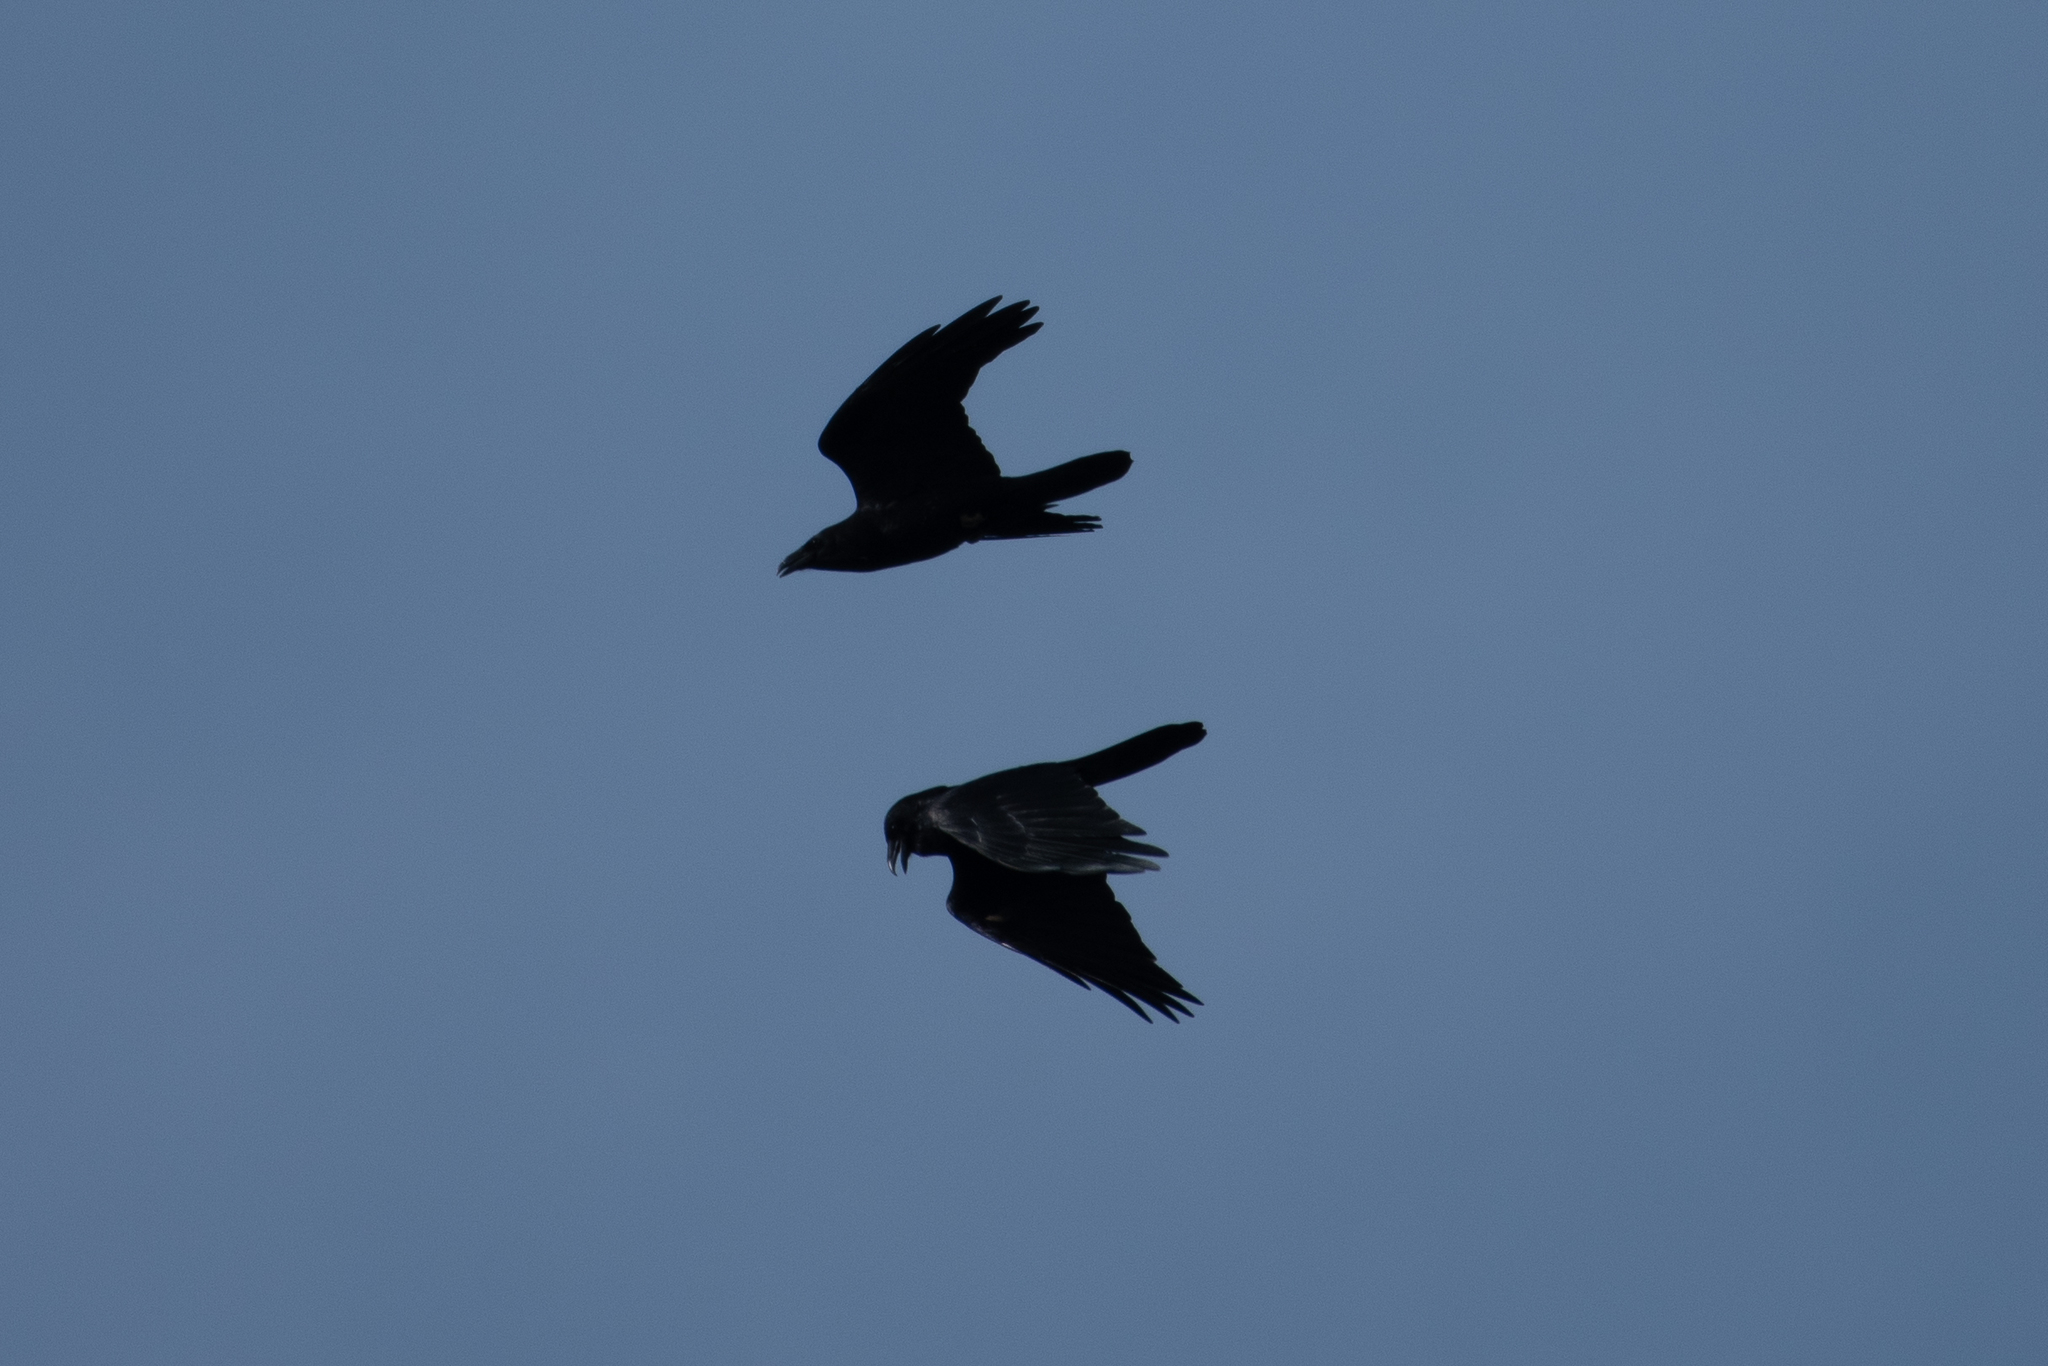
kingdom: Animalia
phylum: Chordata
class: Aves
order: Passeriformes
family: Corvidae
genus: Corvus
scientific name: Corvus corax
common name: Common raven
